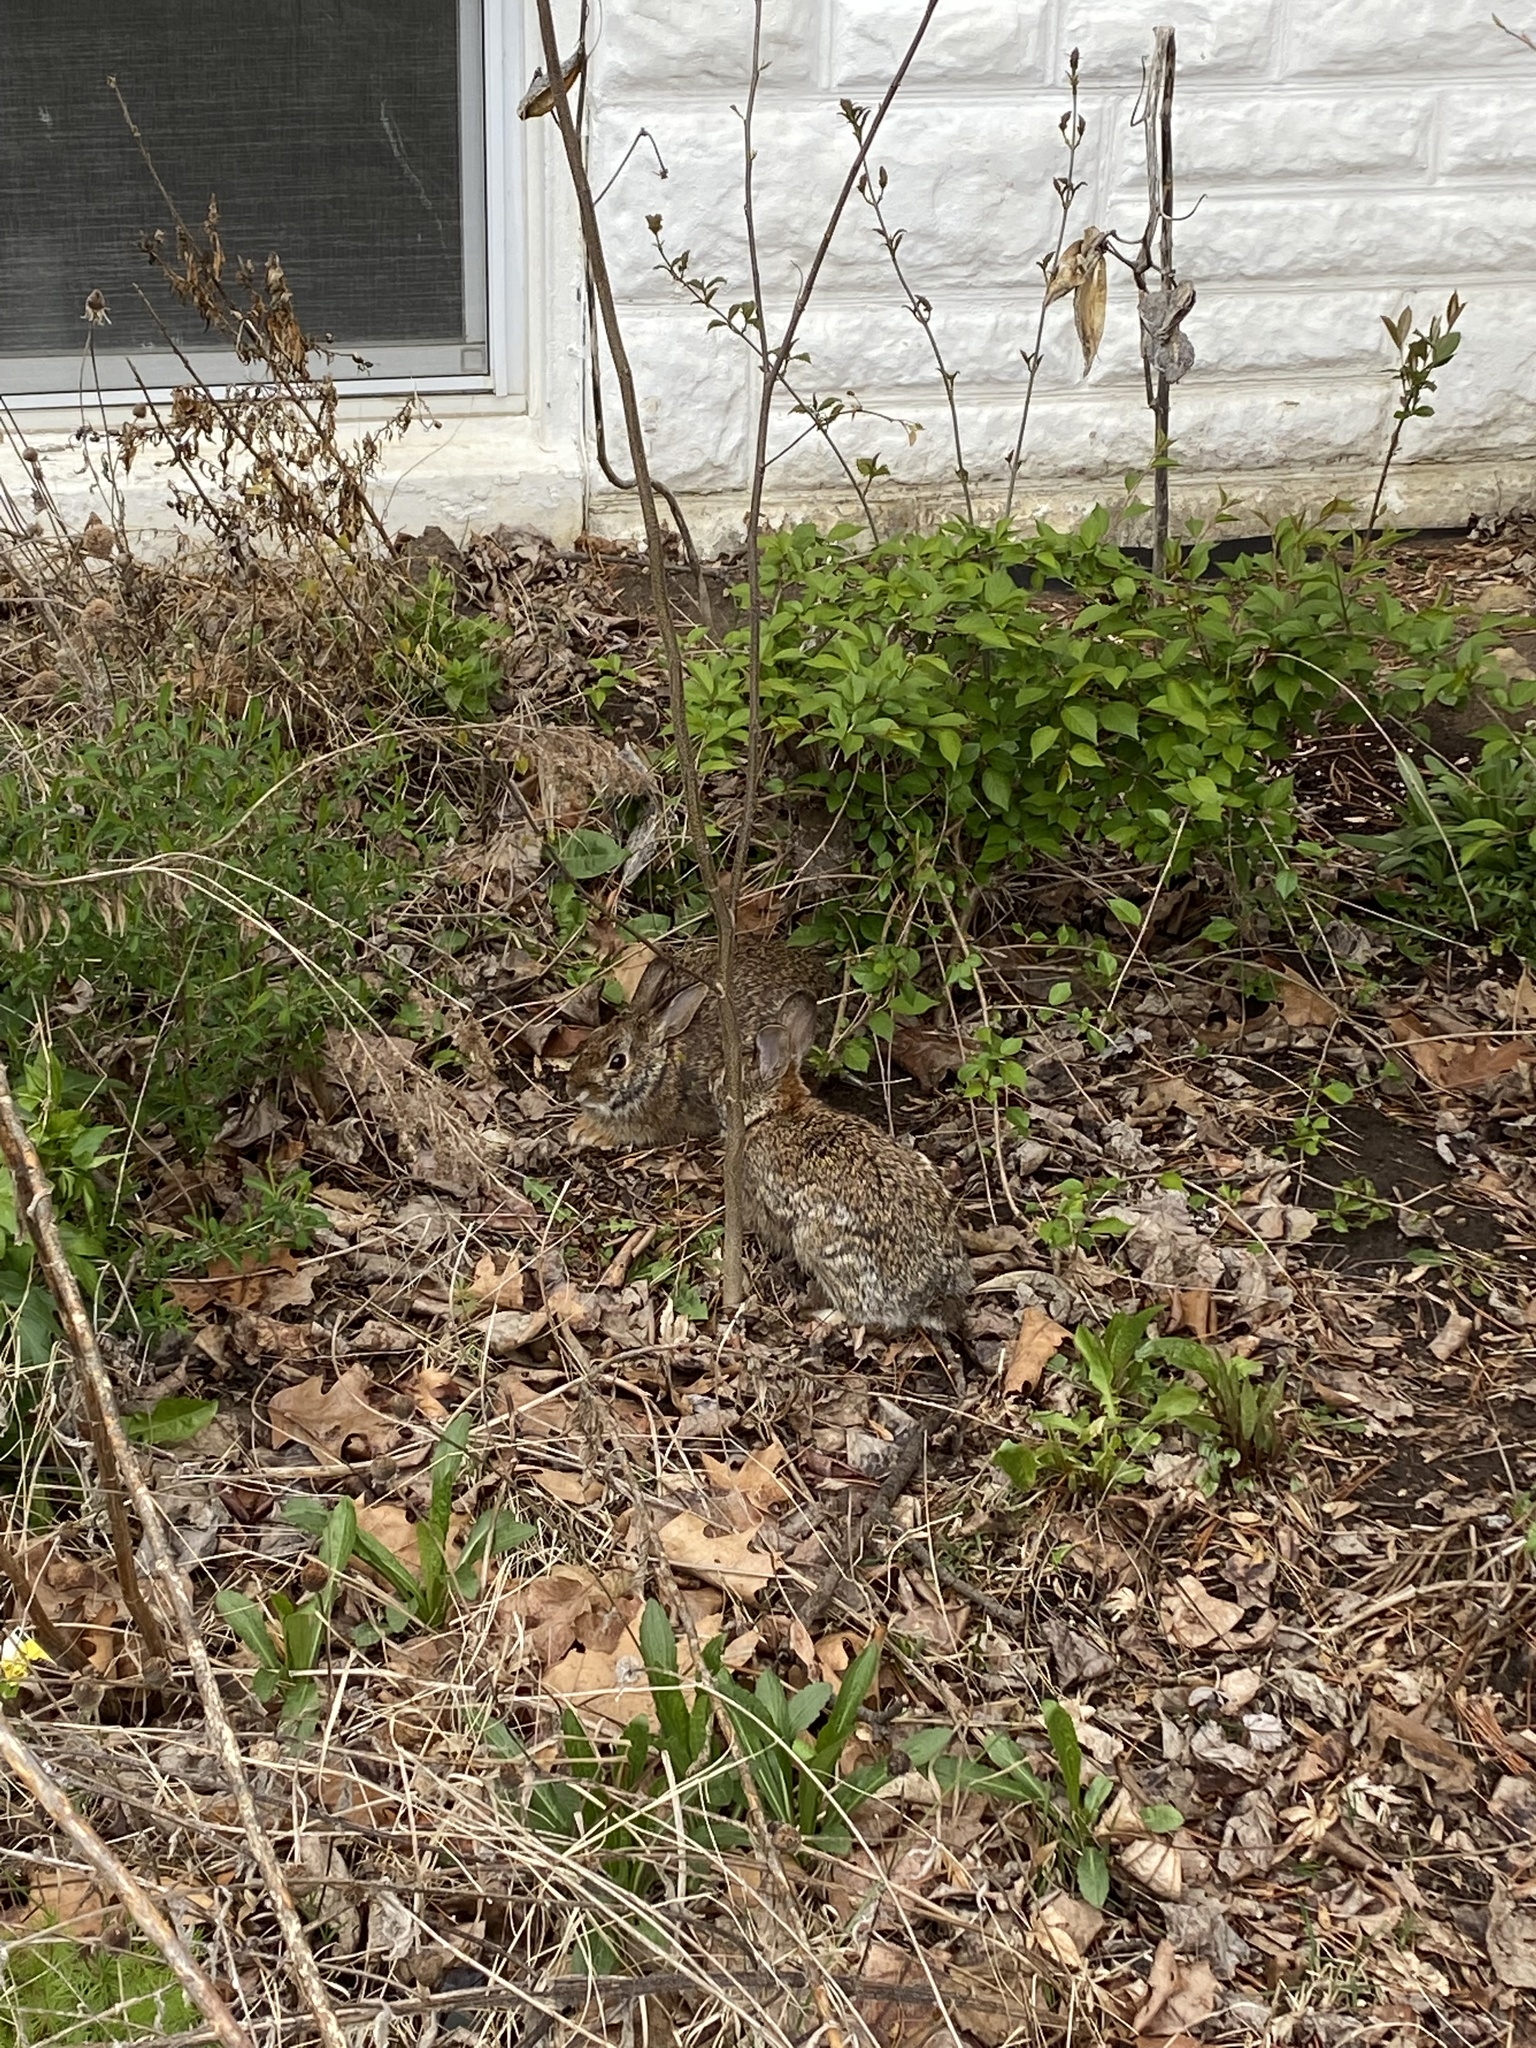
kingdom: Animalia
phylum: Chordata
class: Mammalia
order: Lagomorpha
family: Leporidae
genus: Sylvilagus
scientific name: Sylvilagus floridanus
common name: Eastern cottontail
